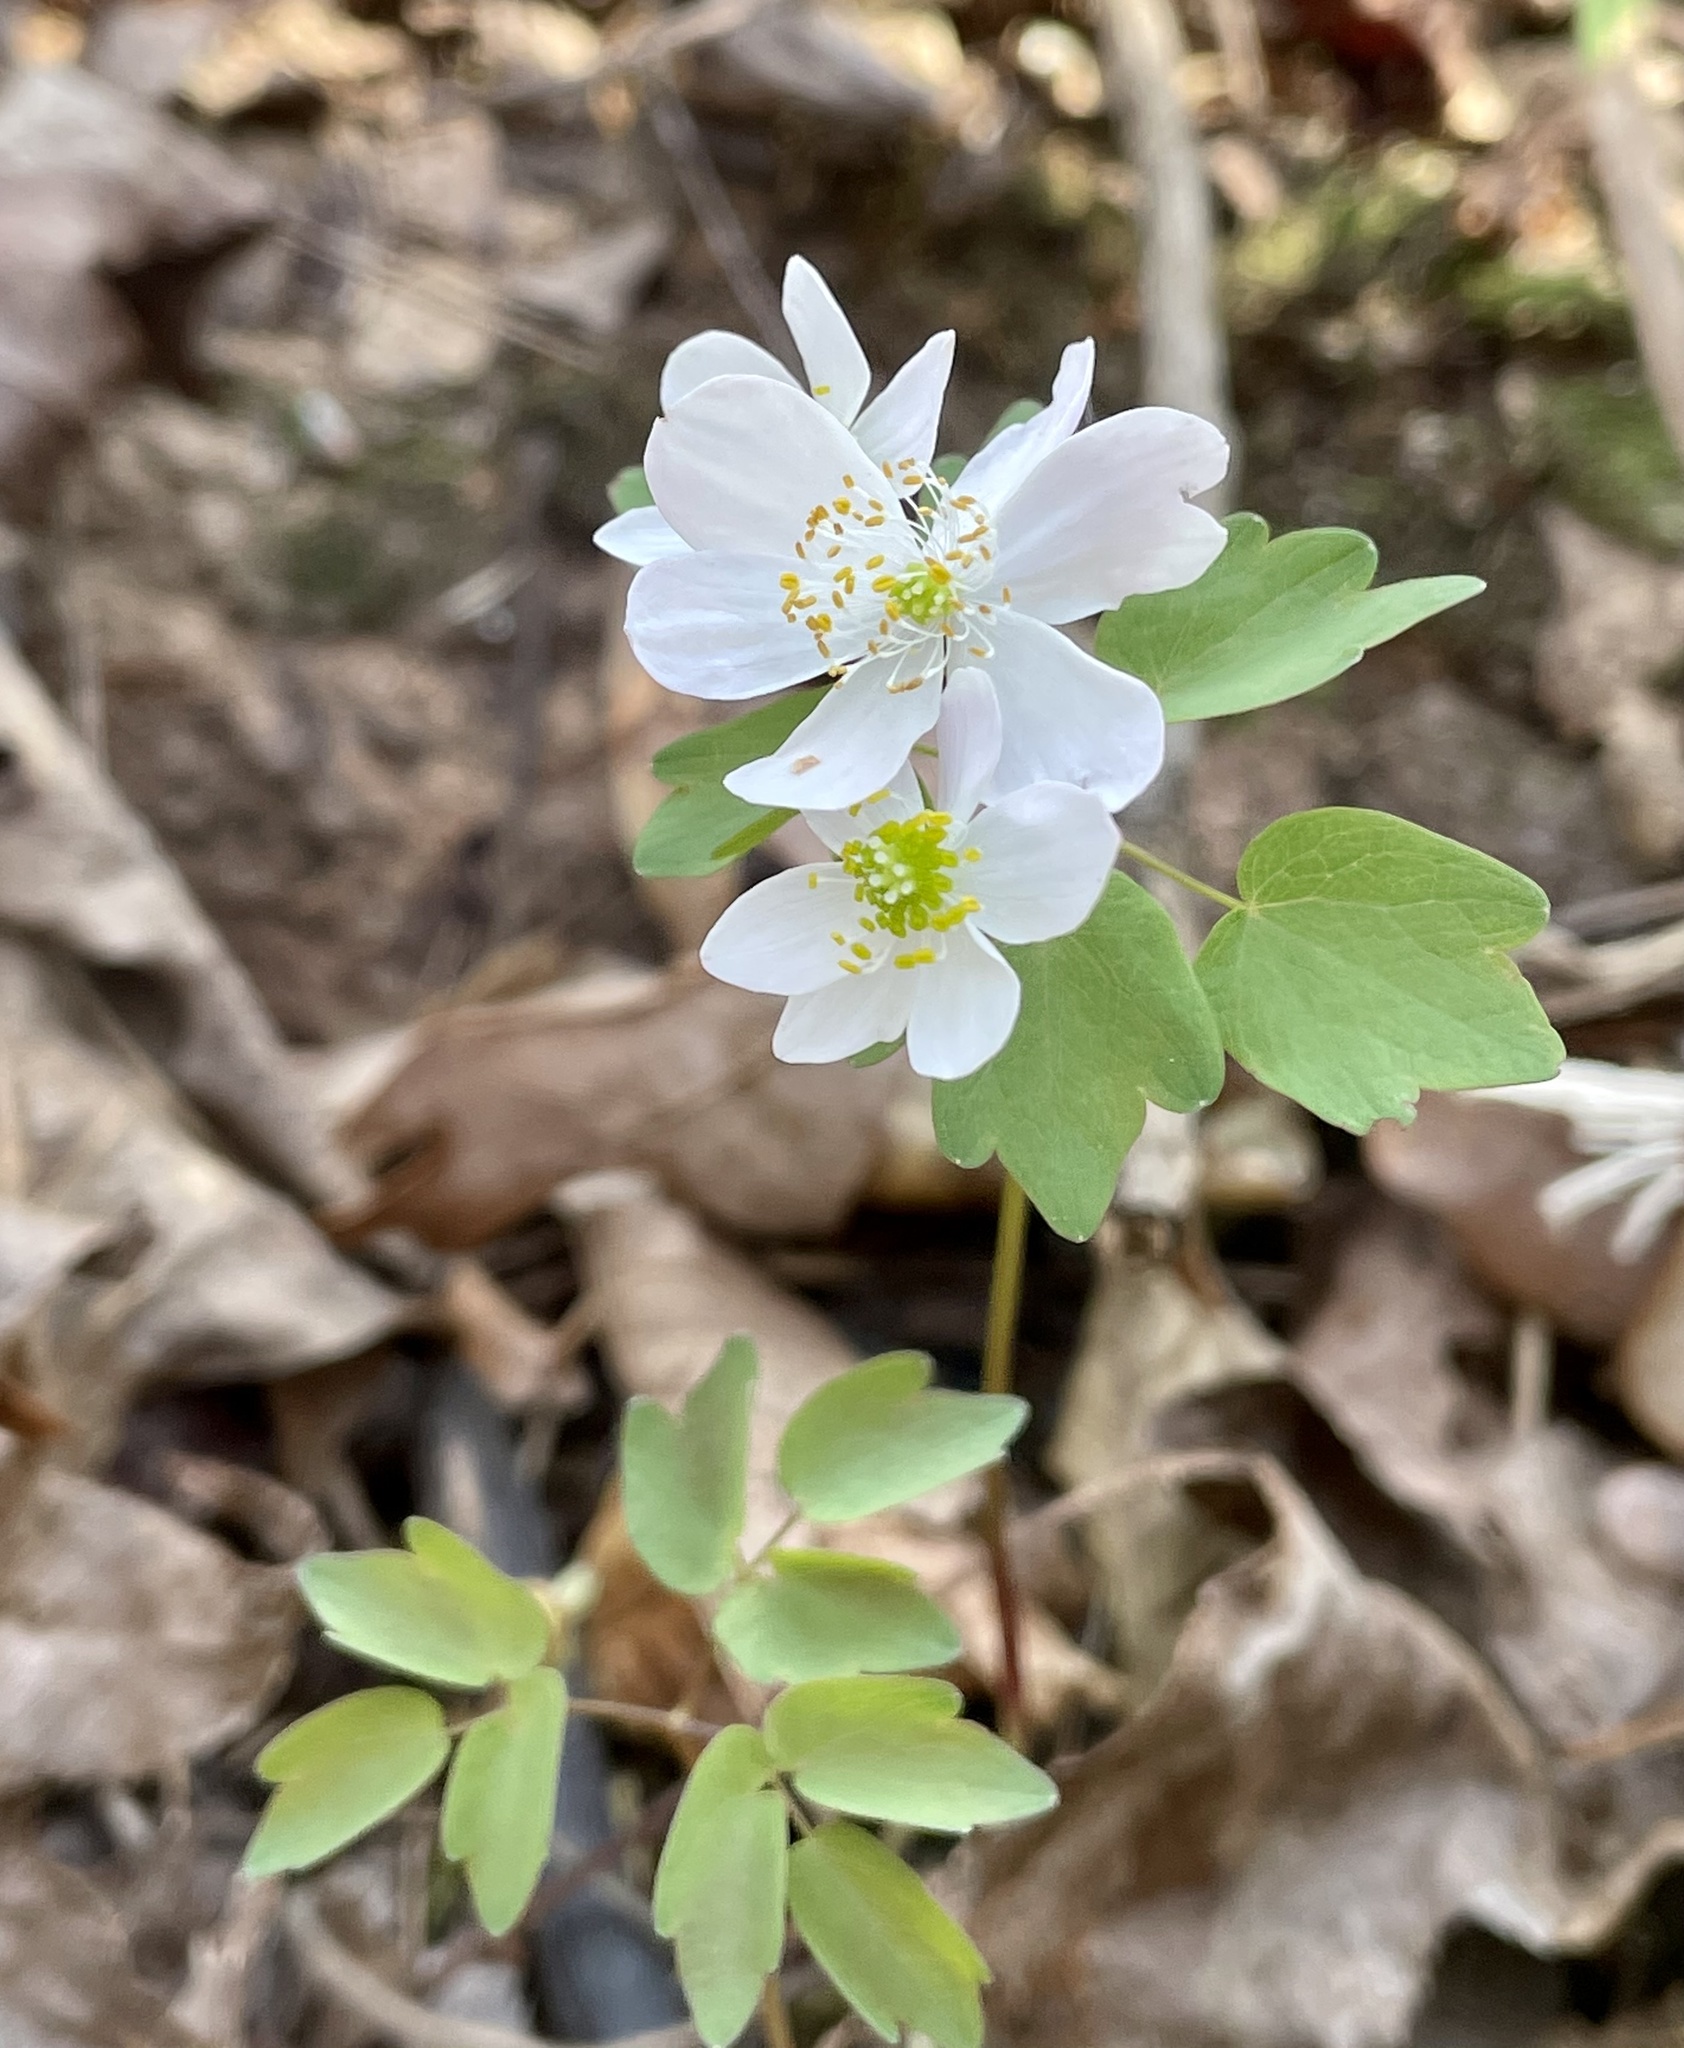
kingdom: Plantae
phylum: Tracheophyta
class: Magnoliopsida
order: Ranunculales
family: Ranunculaceae
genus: Thalictrum
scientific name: Thalictrum thalictroides
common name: Rue-anemone
